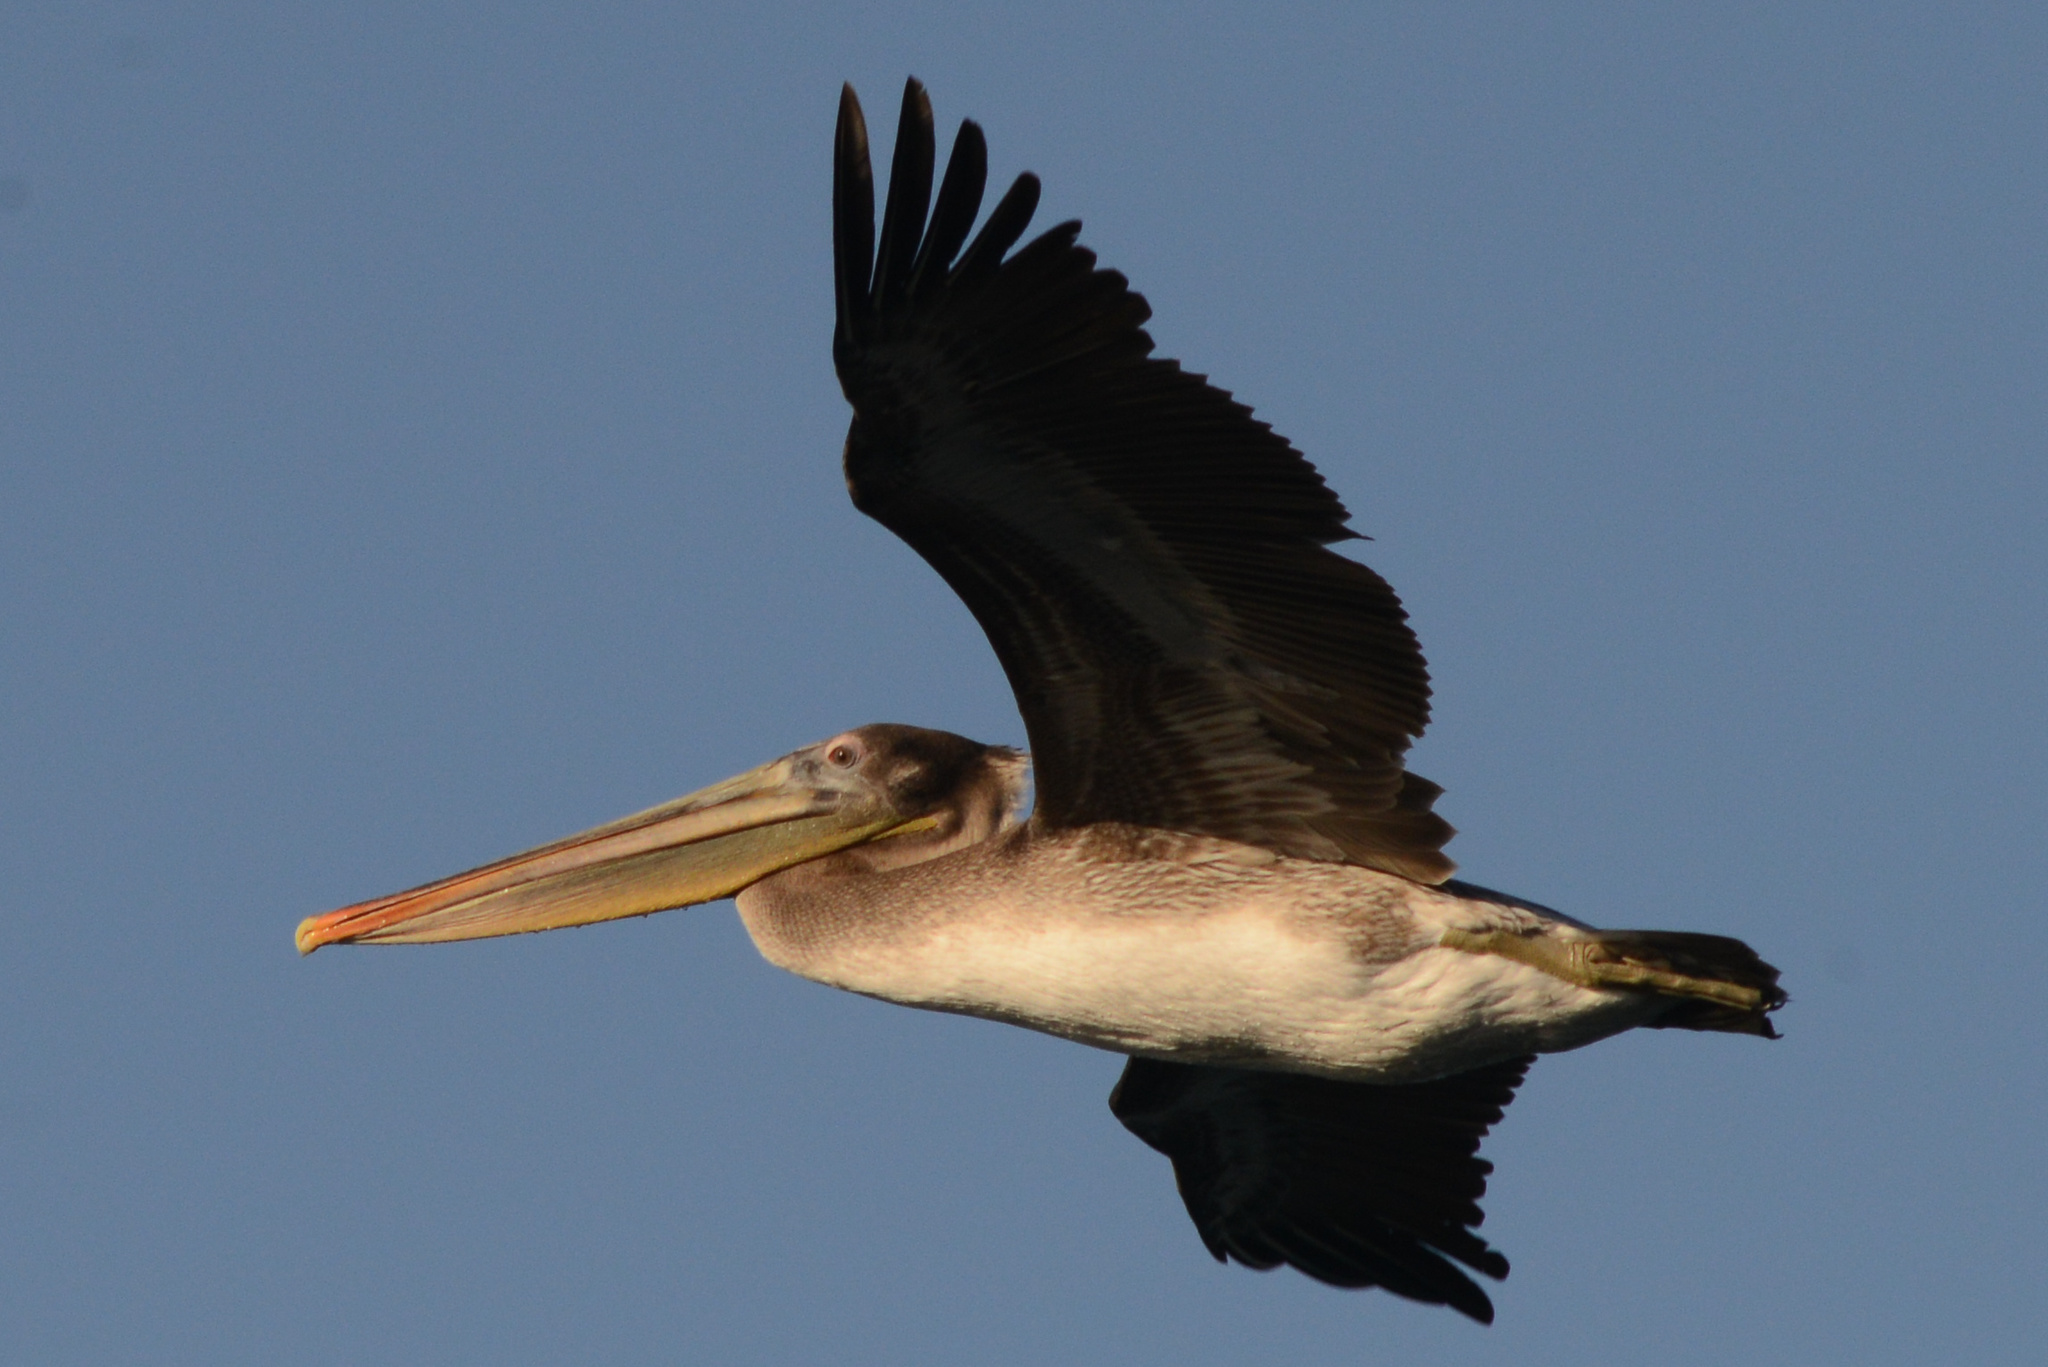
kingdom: Animalia
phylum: Chordata
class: Aves
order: Pelecaniformes
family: Pelecanidae
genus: Pelecanus
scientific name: Pelecanus occidentalis
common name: Brown pelican
